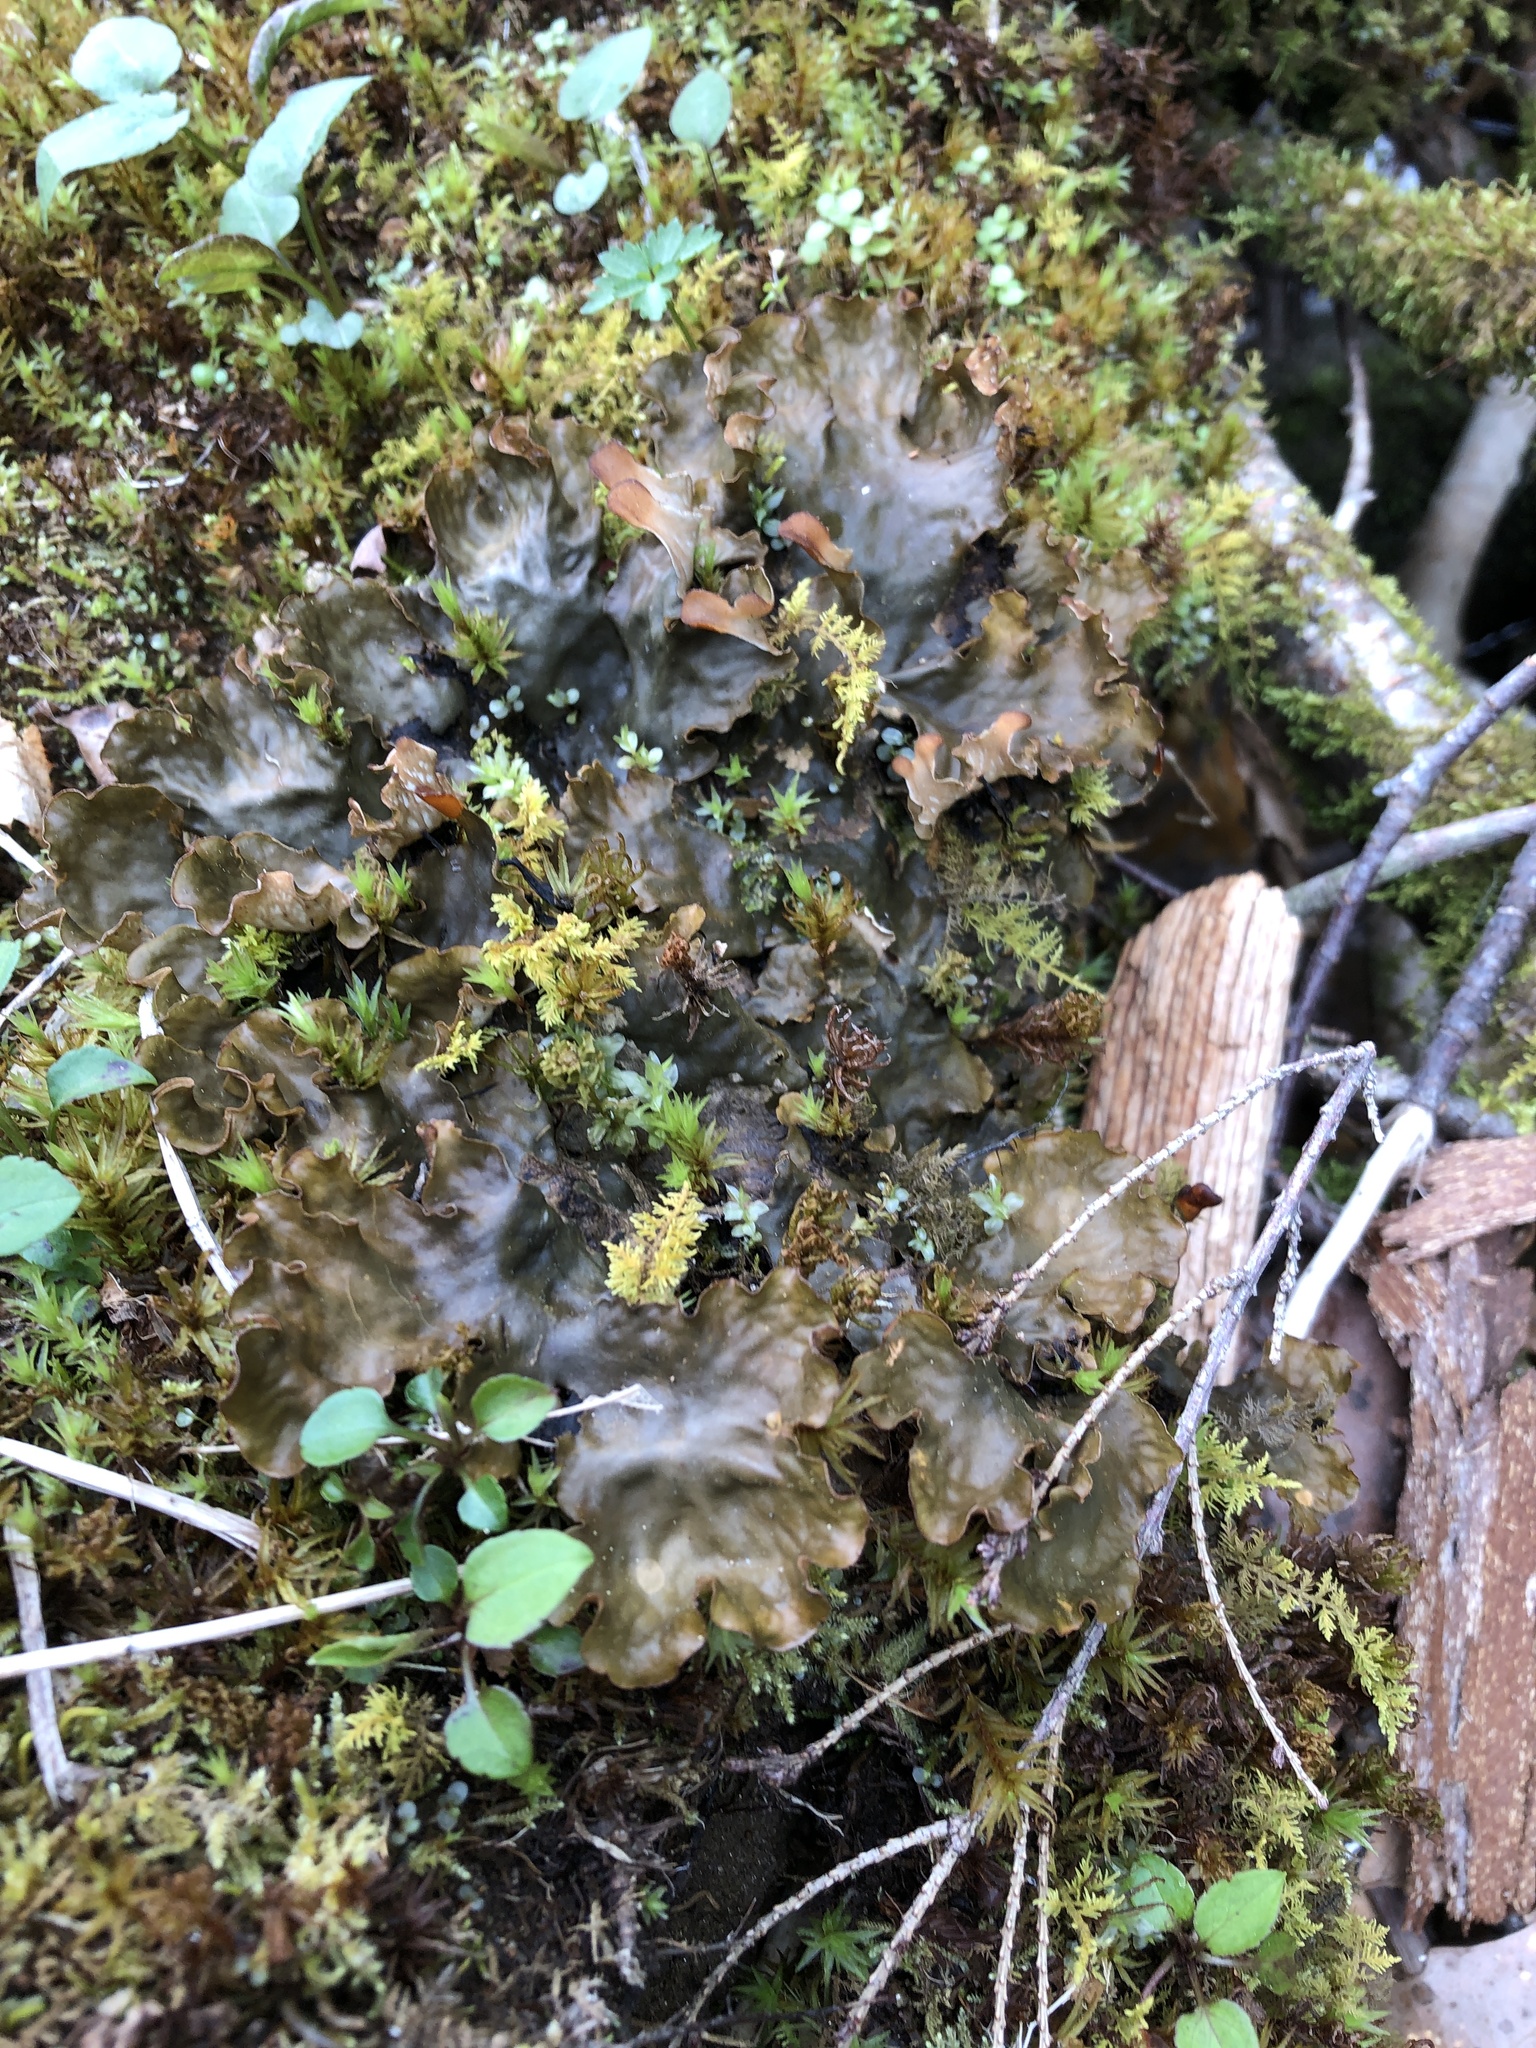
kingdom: Fungi
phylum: Ascomycota
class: Lecanoromycetes
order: Peltigerales
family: Peltigeraceae
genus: Peltigera
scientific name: Peltigera membranacea
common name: Membranous pelt lichen
